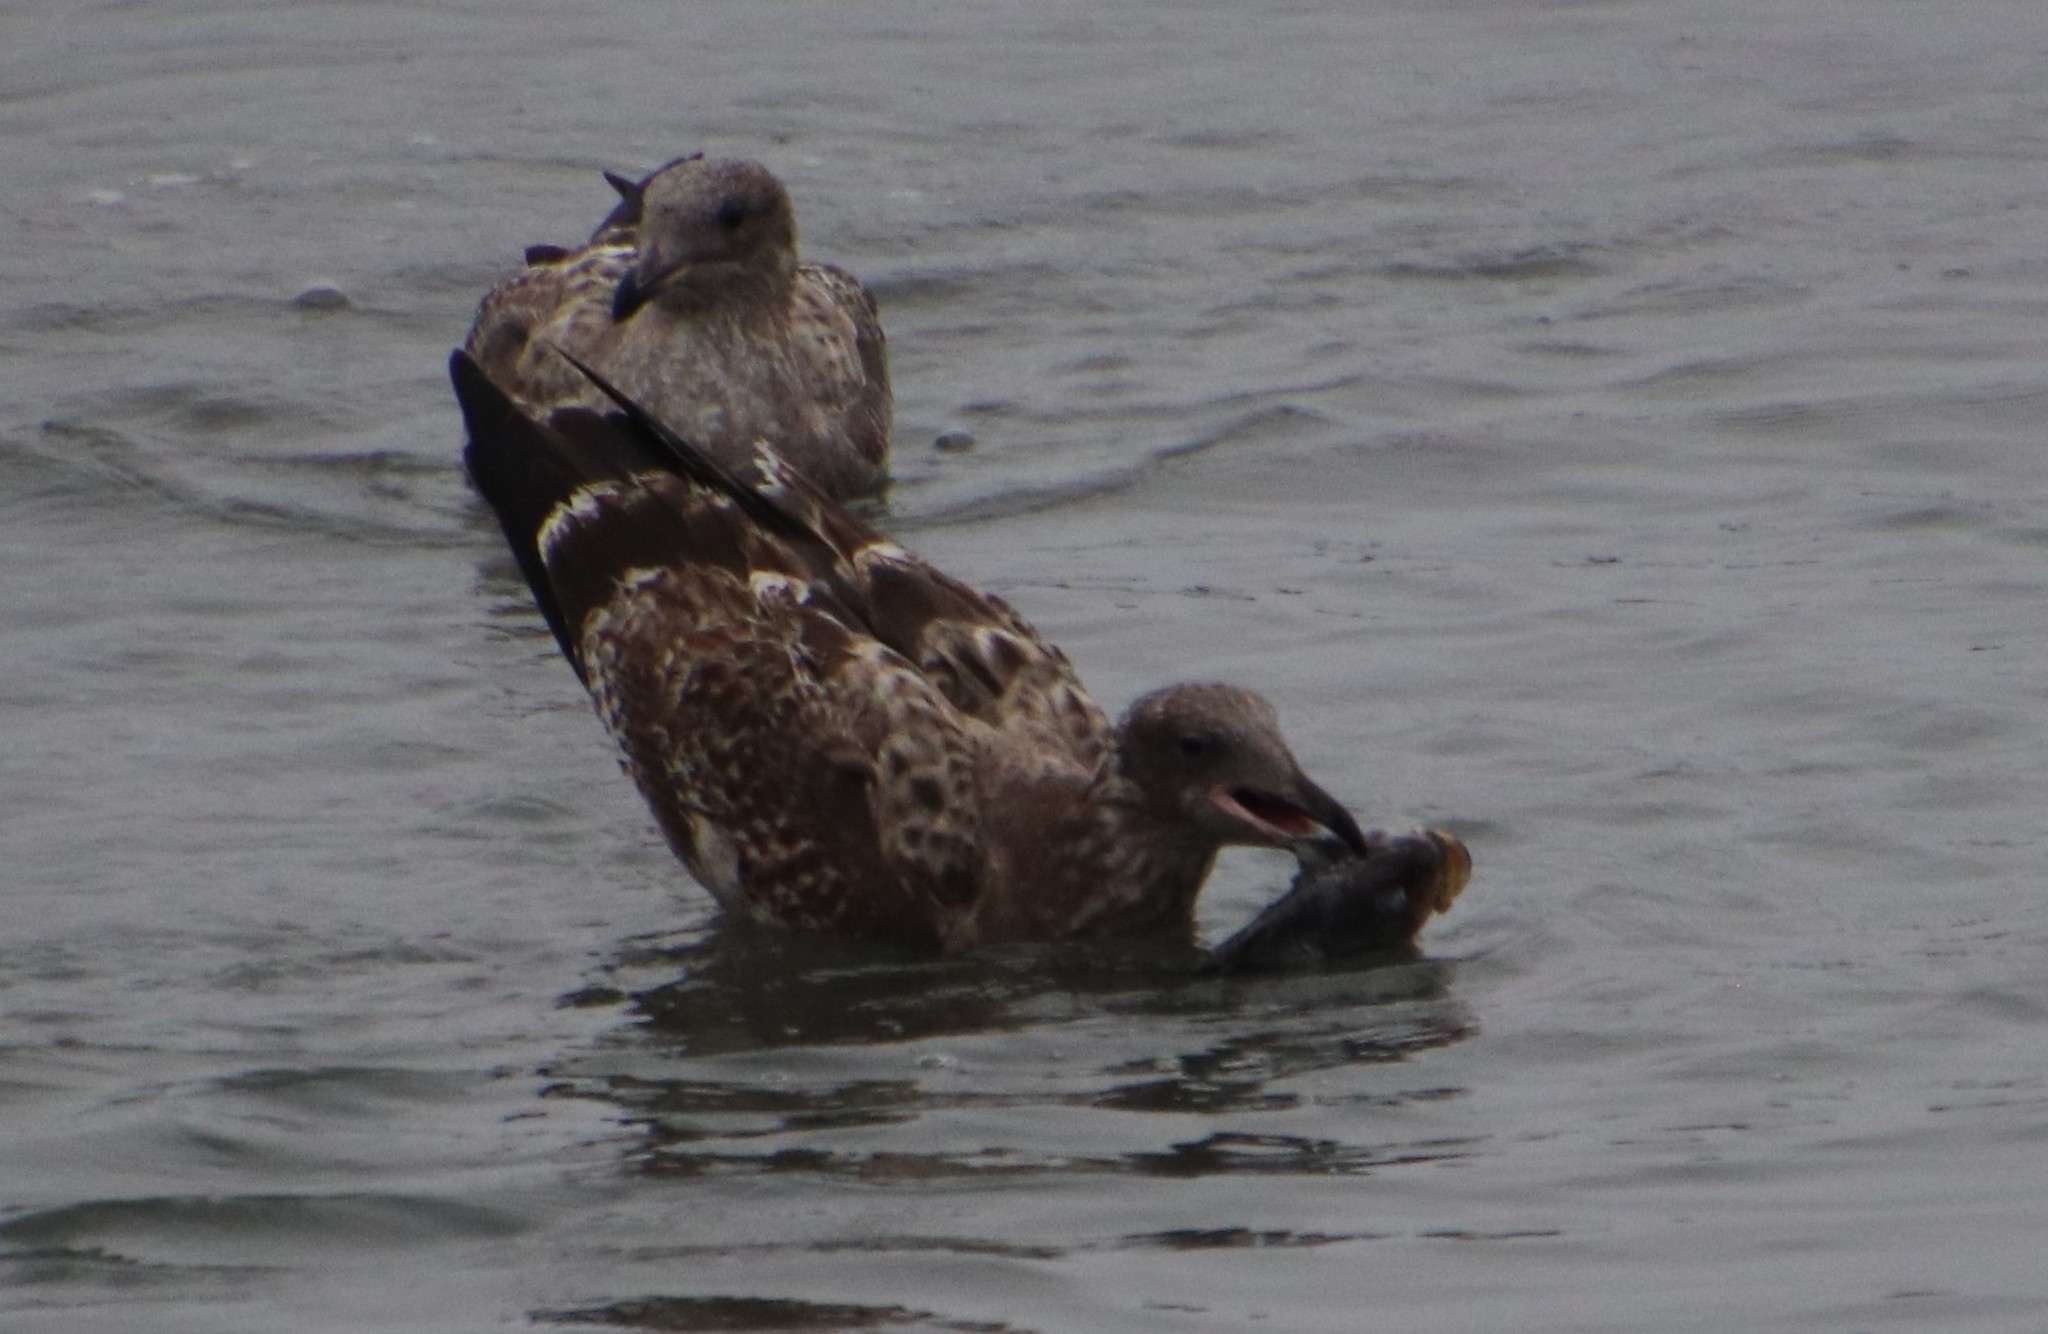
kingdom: Animalia
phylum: Chordata
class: Aves
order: Charadriiformes
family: Laridae
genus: Larus
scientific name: Larus occidentalis
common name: Western gull
